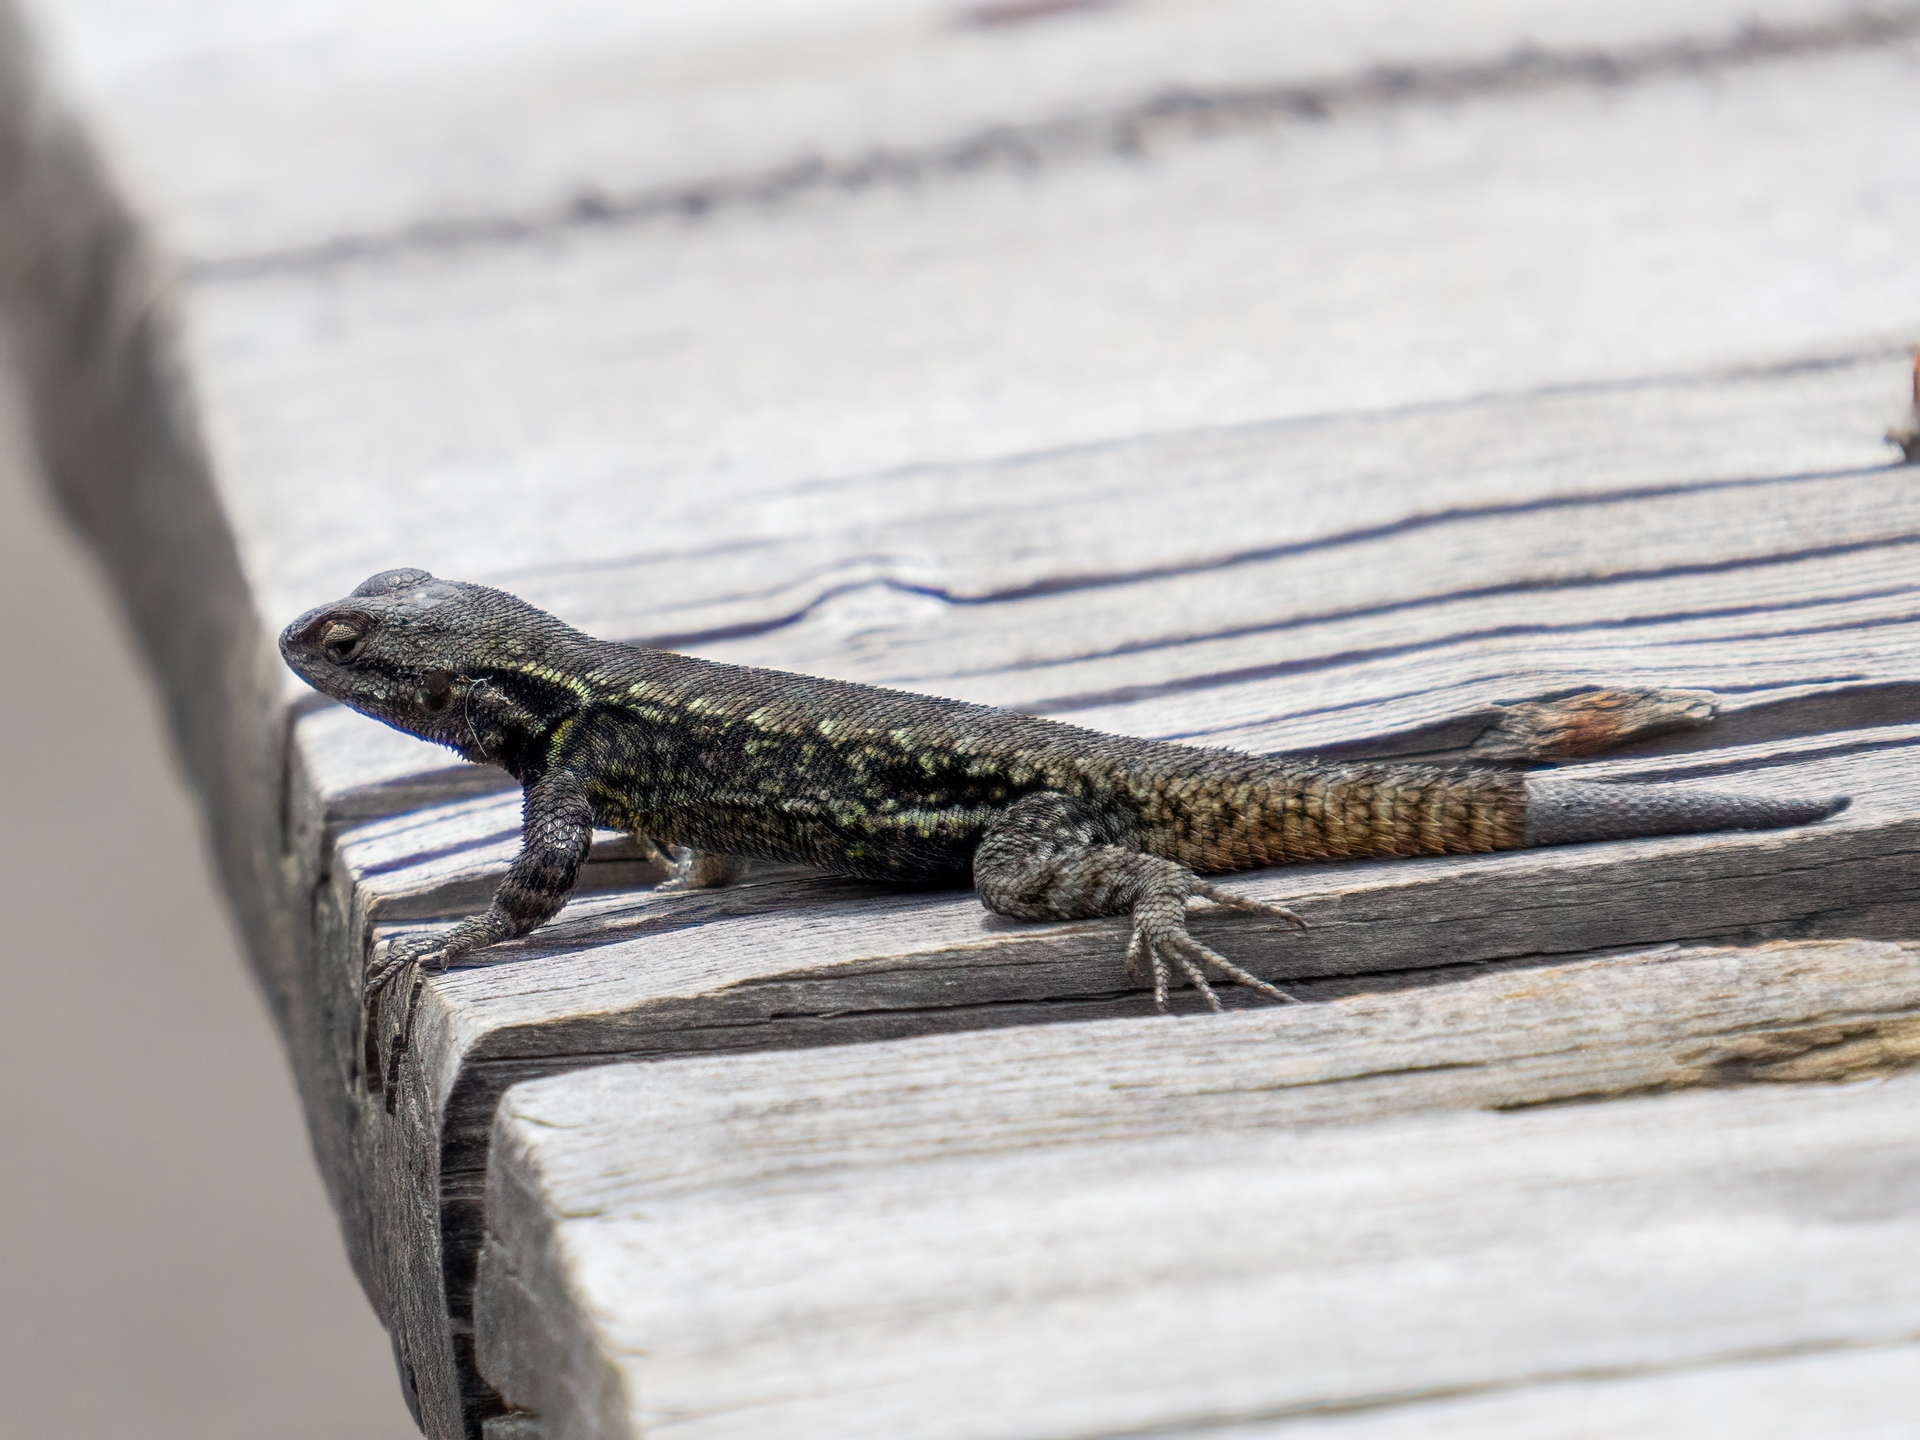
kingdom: Animalia
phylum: Chordata
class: Squamata
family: Phrynosomatidae
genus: Sceloporus
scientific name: Sceloporus anahuacus
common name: Anahuacan bunchgrass lizard
